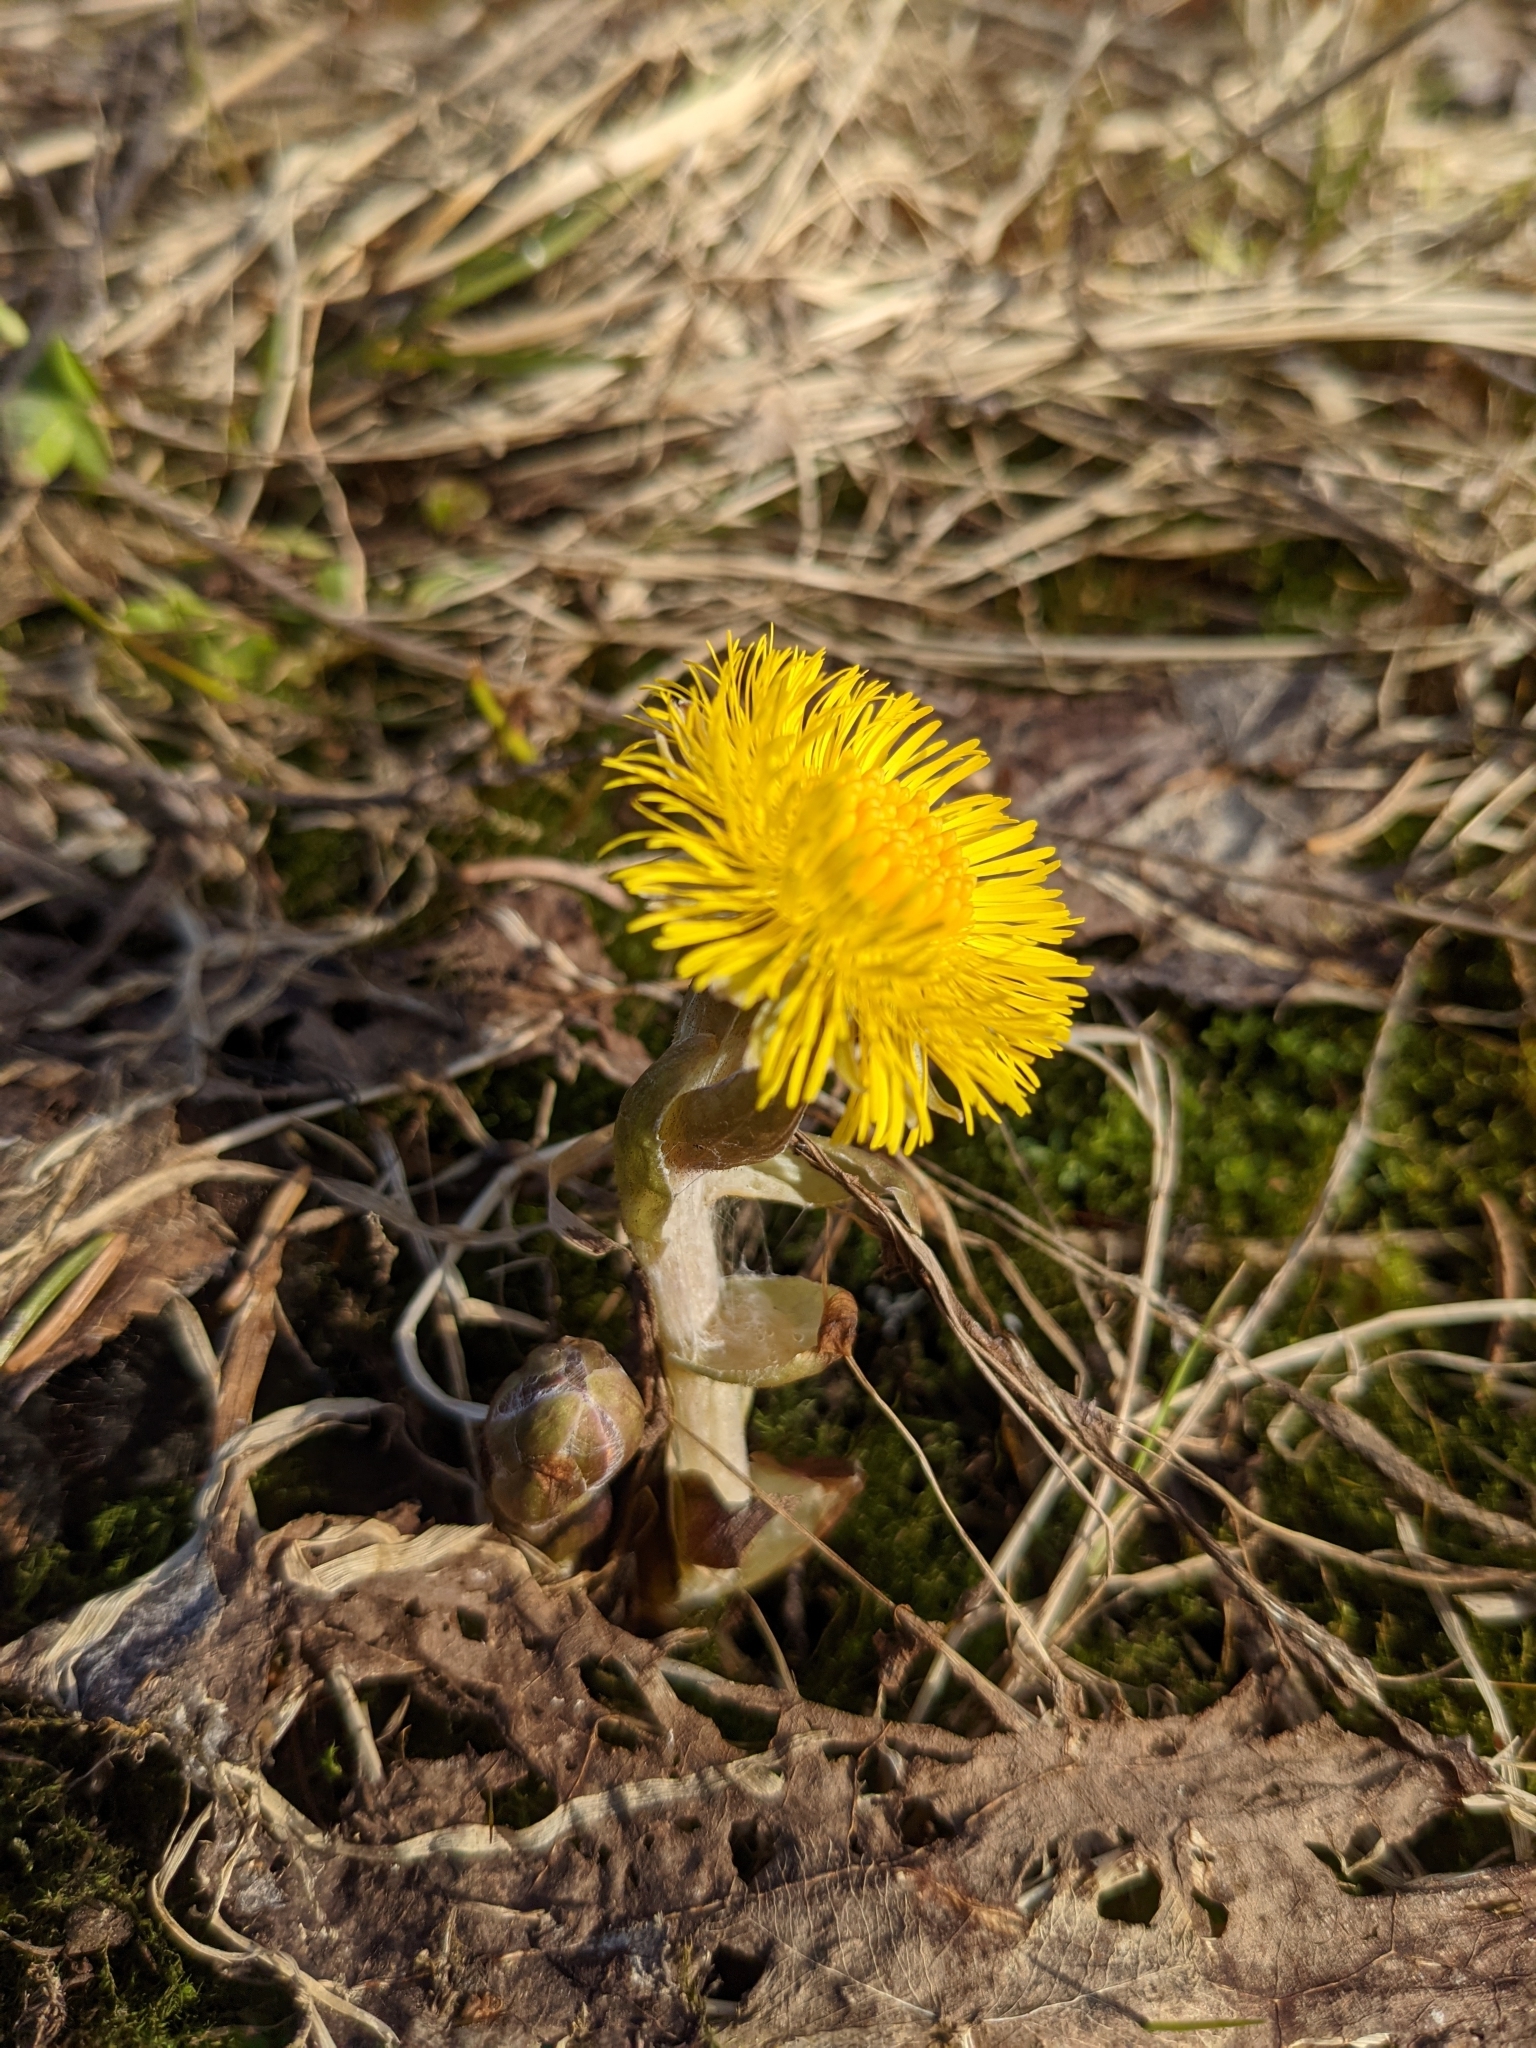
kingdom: Plantae
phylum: Tracheophyta
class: Magnoliopsida
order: Asterales
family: Asteraceae
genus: Tussilago
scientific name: Tussilago farfara
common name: Coltsfoot
